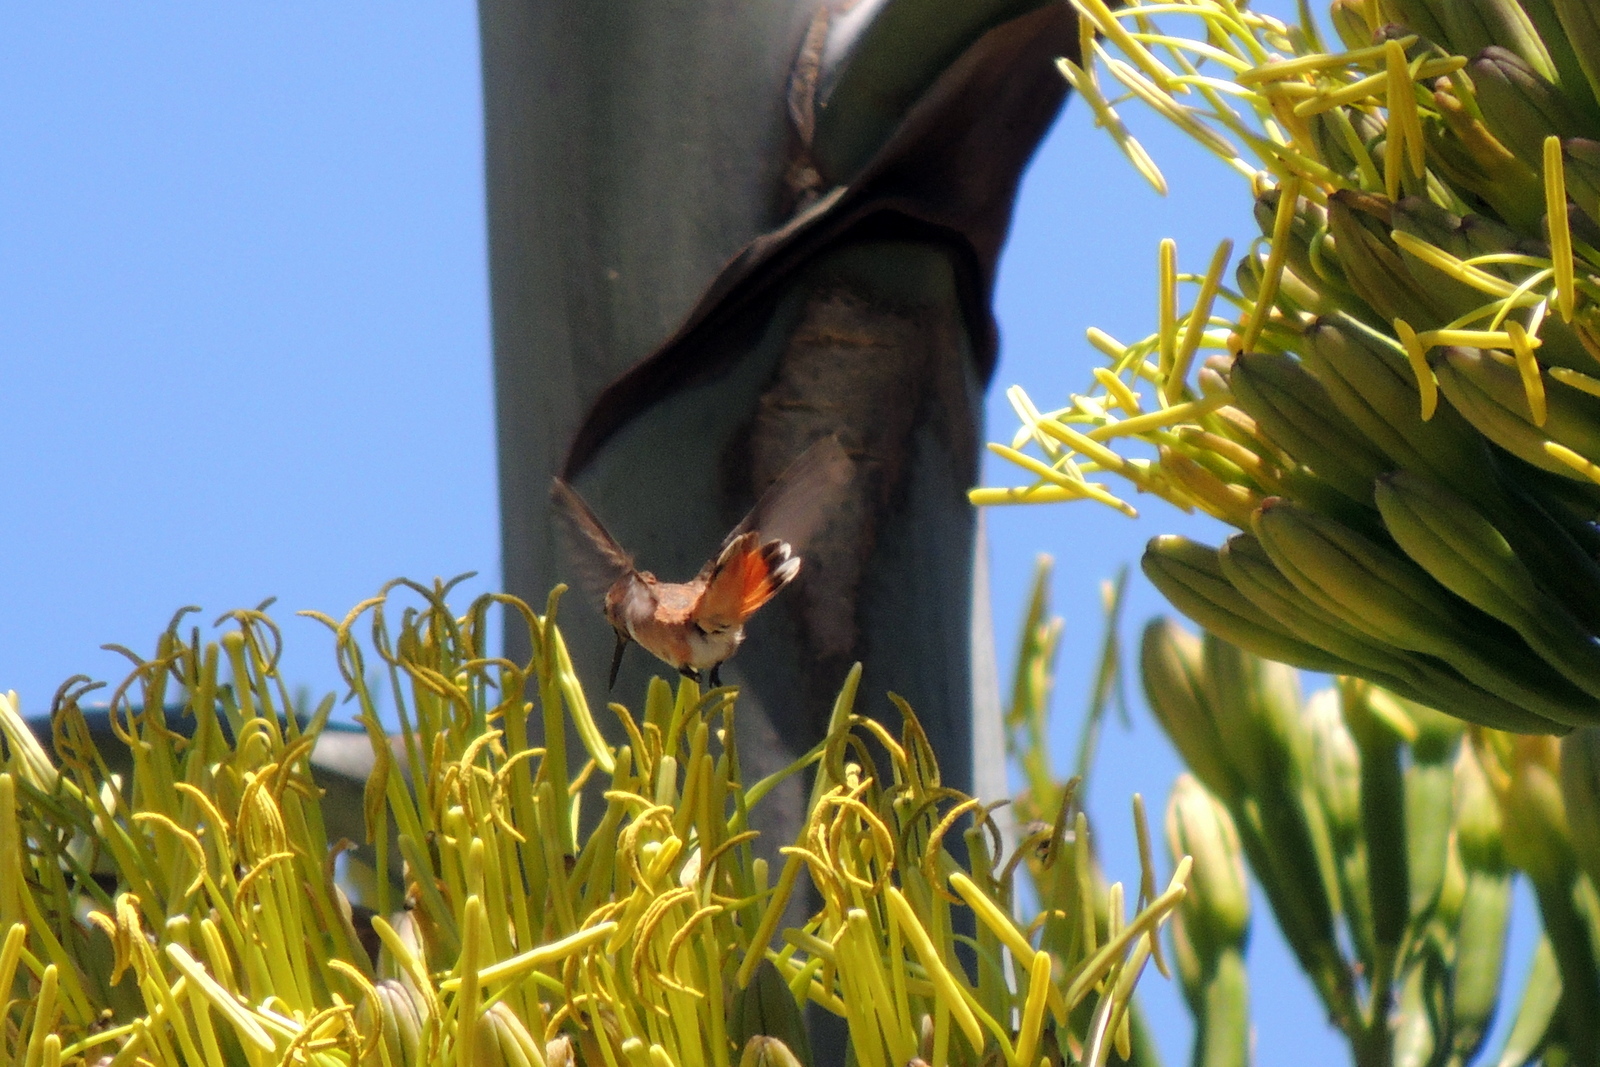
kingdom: Animalia
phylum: Chordata
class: Aves
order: Apodiformes
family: Trochilidae
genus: Selasphorus
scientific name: Selasphorus
